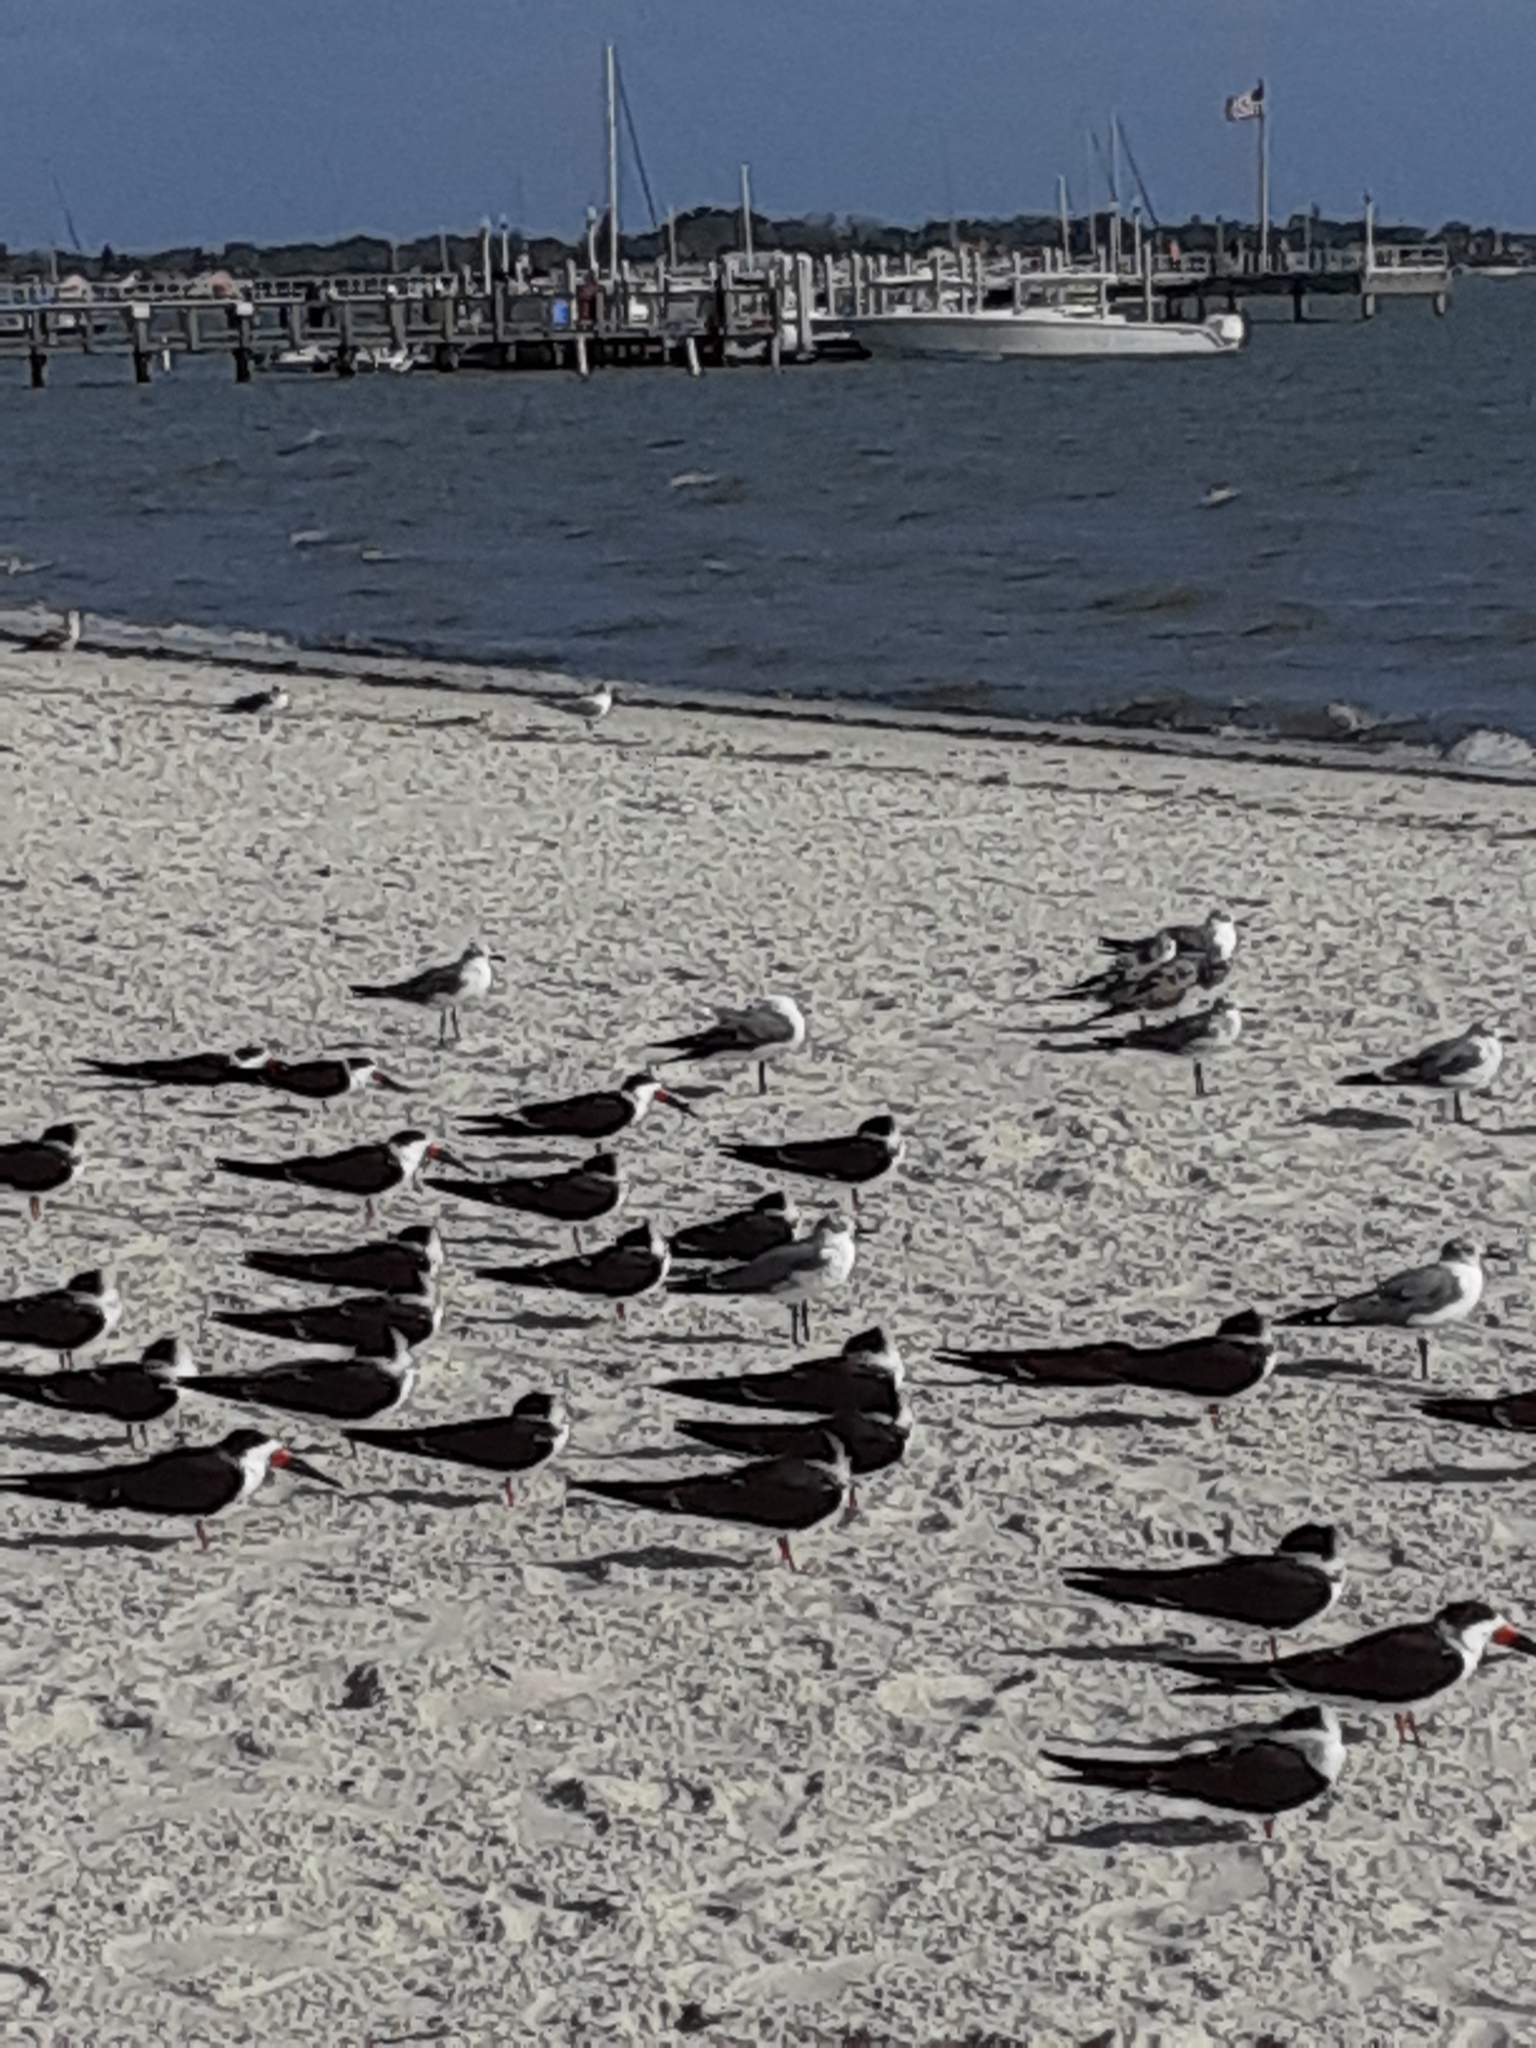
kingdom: Animalia
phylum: Chordata
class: Aves
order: Charadriiformes
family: Laridae
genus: Rynchops
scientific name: Rynchops niger
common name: Black skimmer
